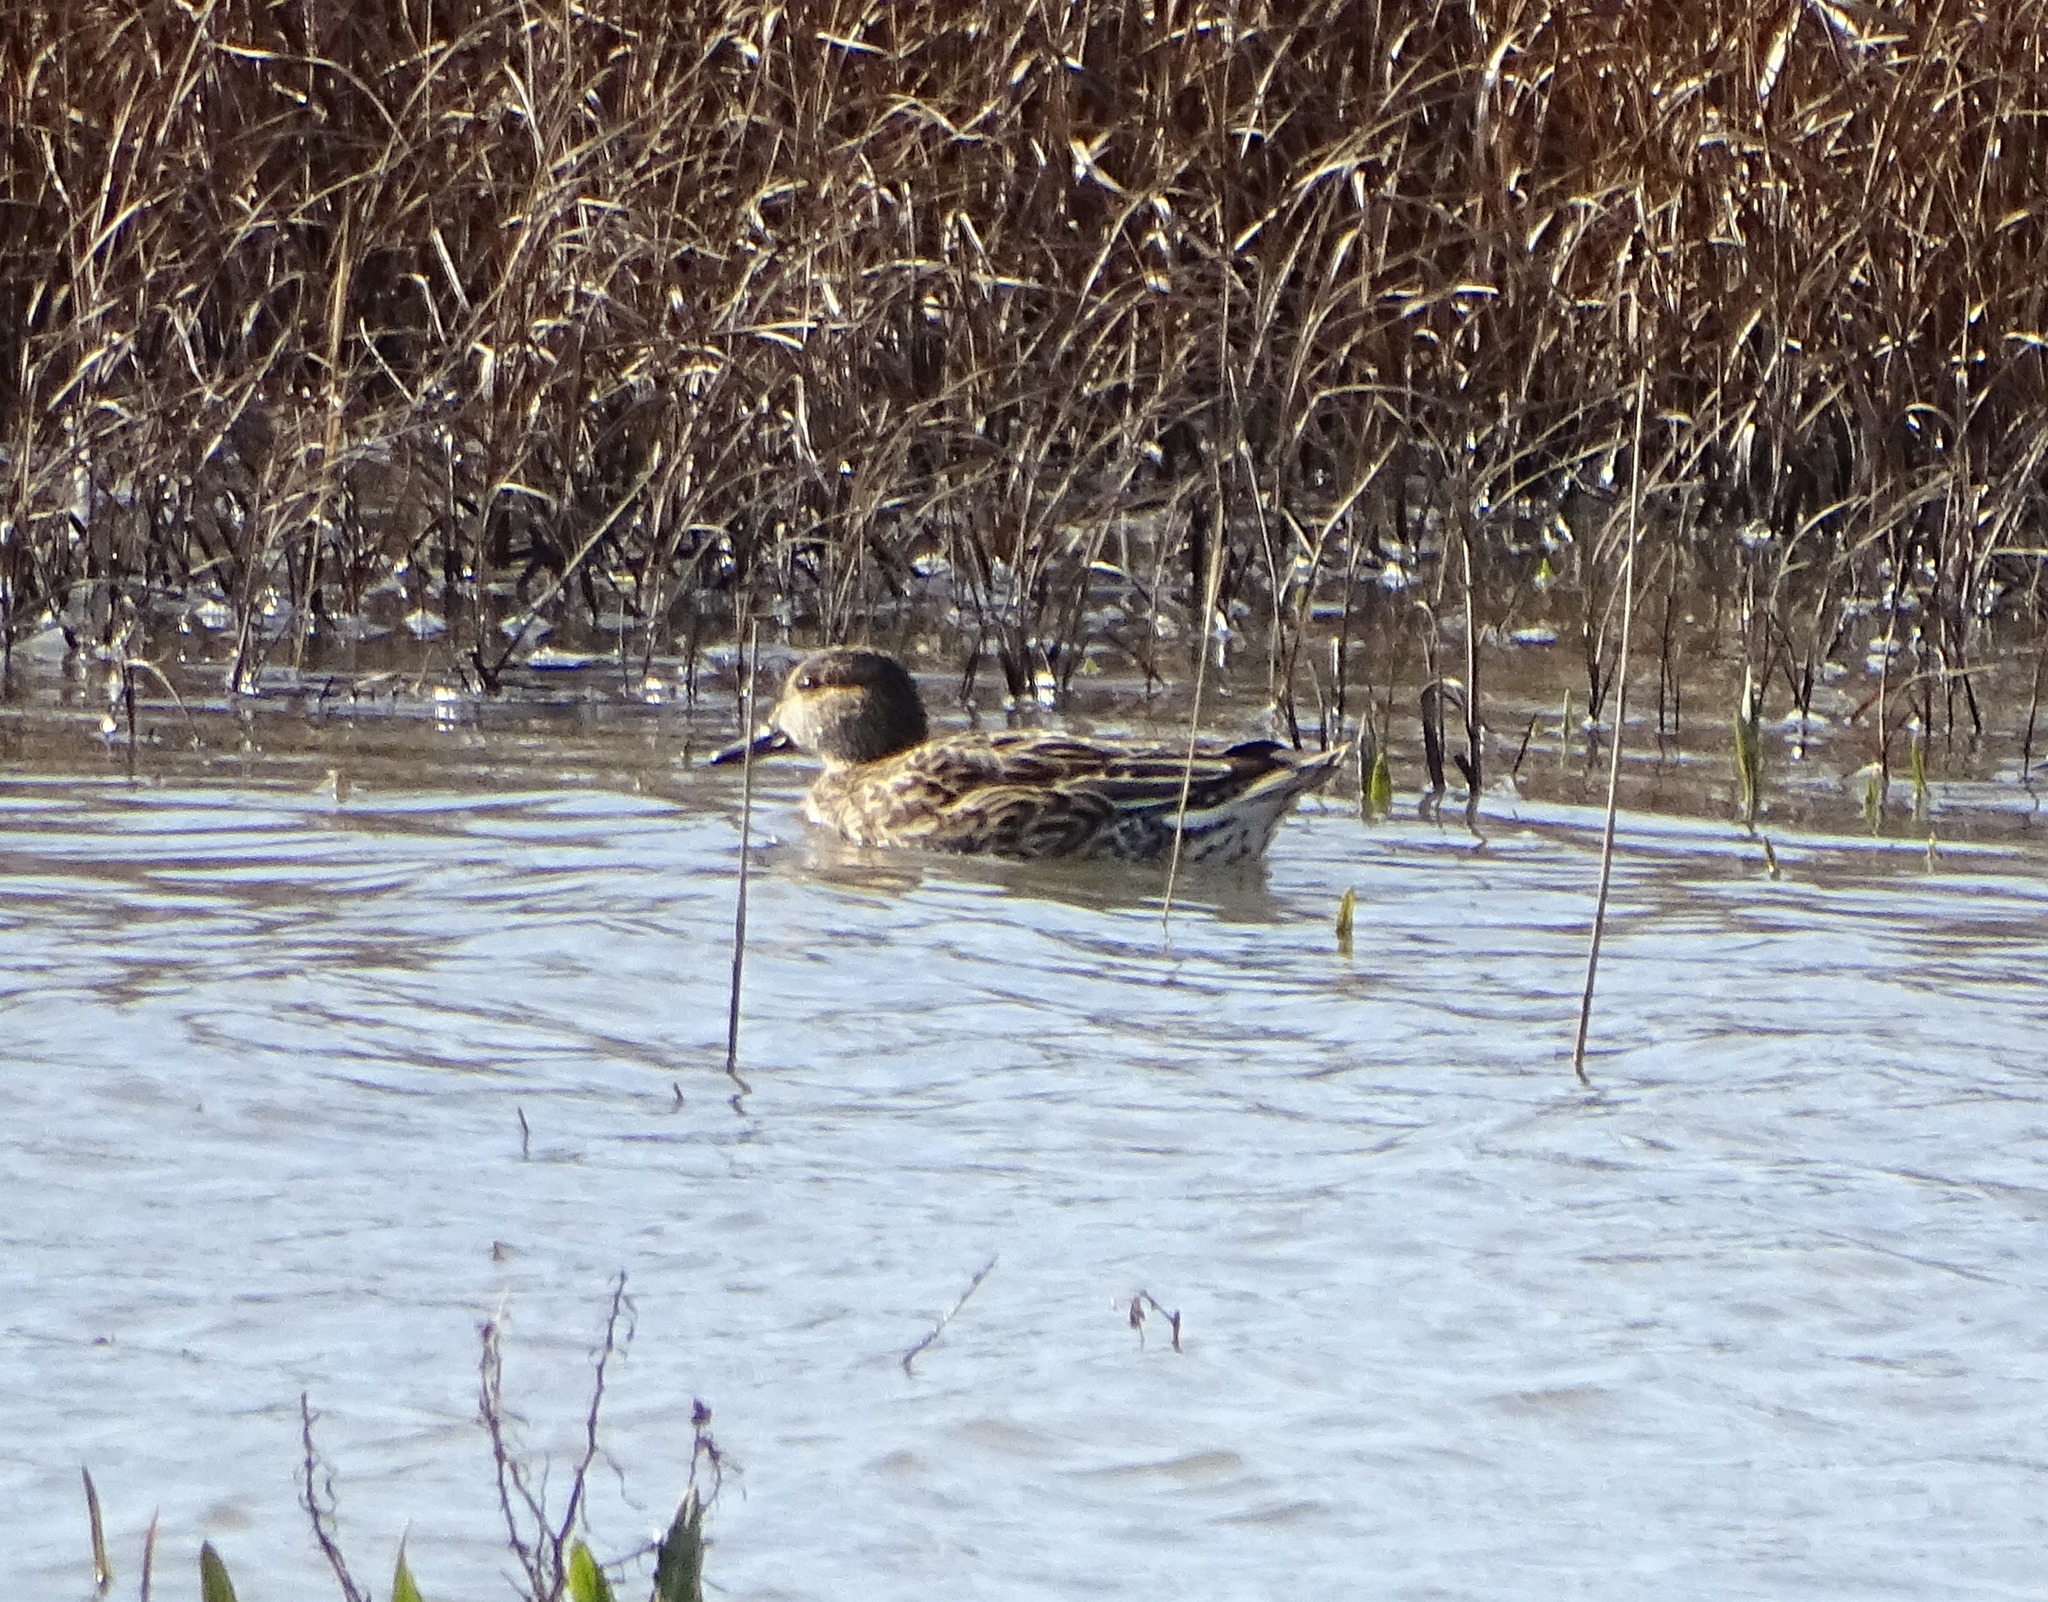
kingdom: Animalia
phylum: Chordata
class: Aves
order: Anseriformes
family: Anatidae
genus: Anas
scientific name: Anas crecca
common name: Eurasian teal
